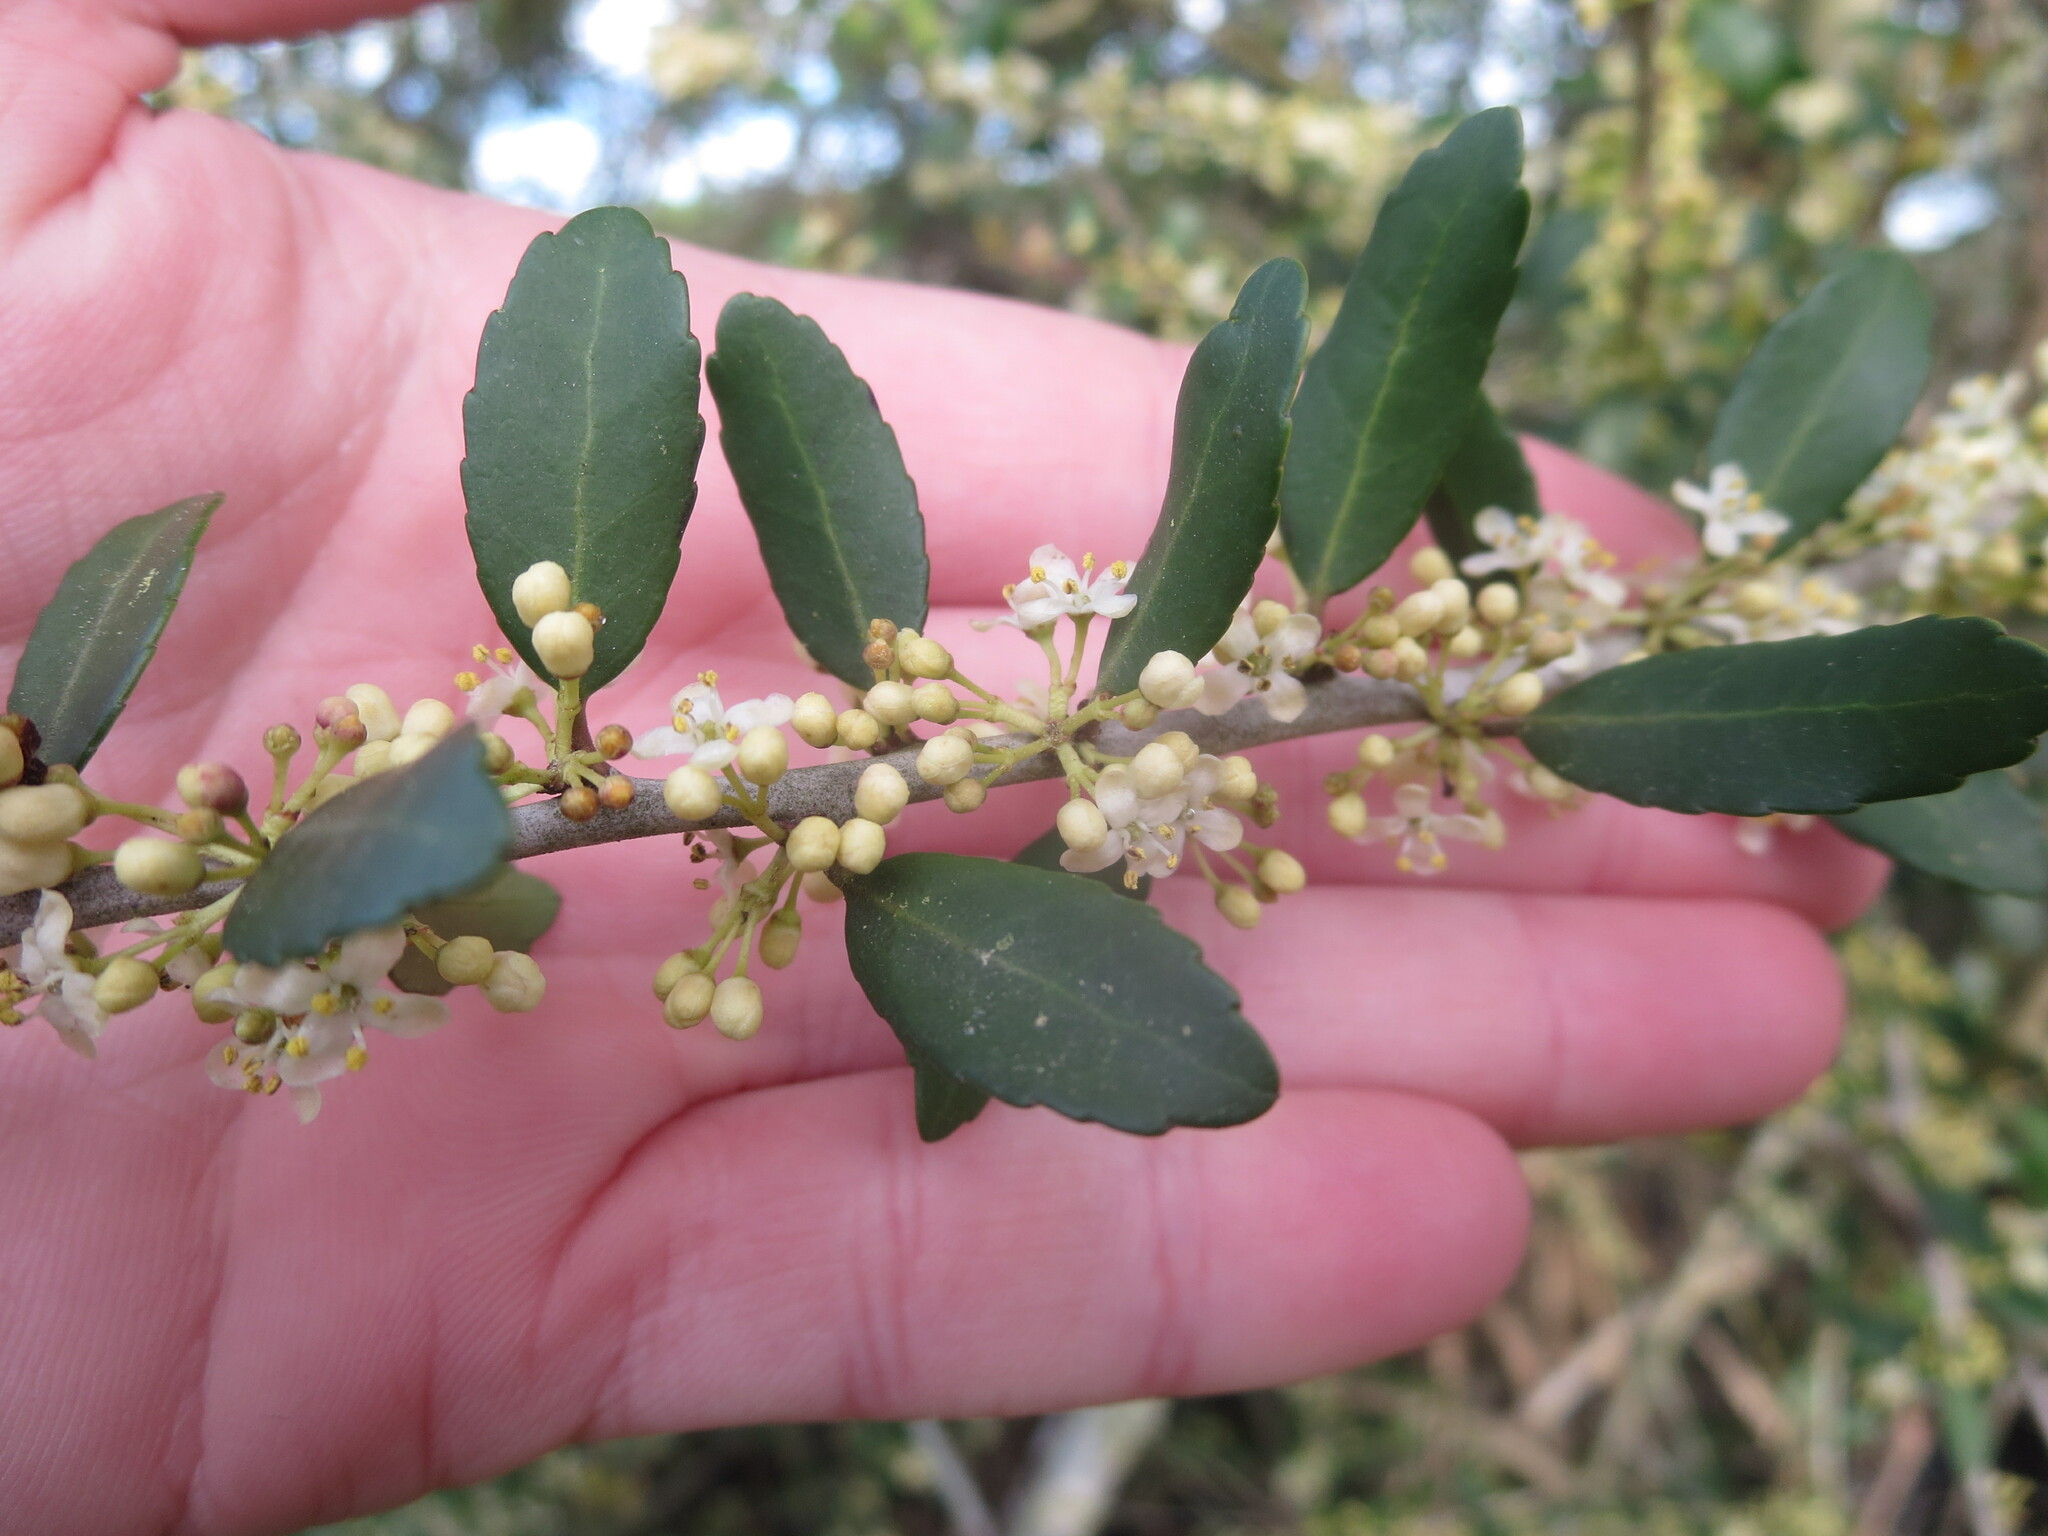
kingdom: Plantae
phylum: Tracheophyta
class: Magnoliopsida
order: Aquifoliales
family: Aquifoliaceae
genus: Ilex
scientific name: Ilex vomitoria
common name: Yaupon holly
